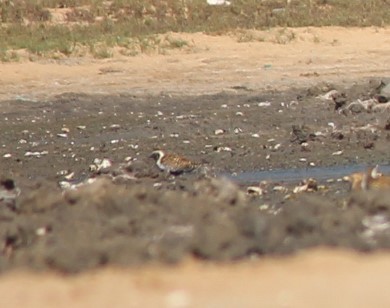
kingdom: Animalia
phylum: Chordata
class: Aves
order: Charadriiformes
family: Charadriidae
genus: Pluvialis
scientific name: Pluvialis fulva
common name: Pacific golden plover
